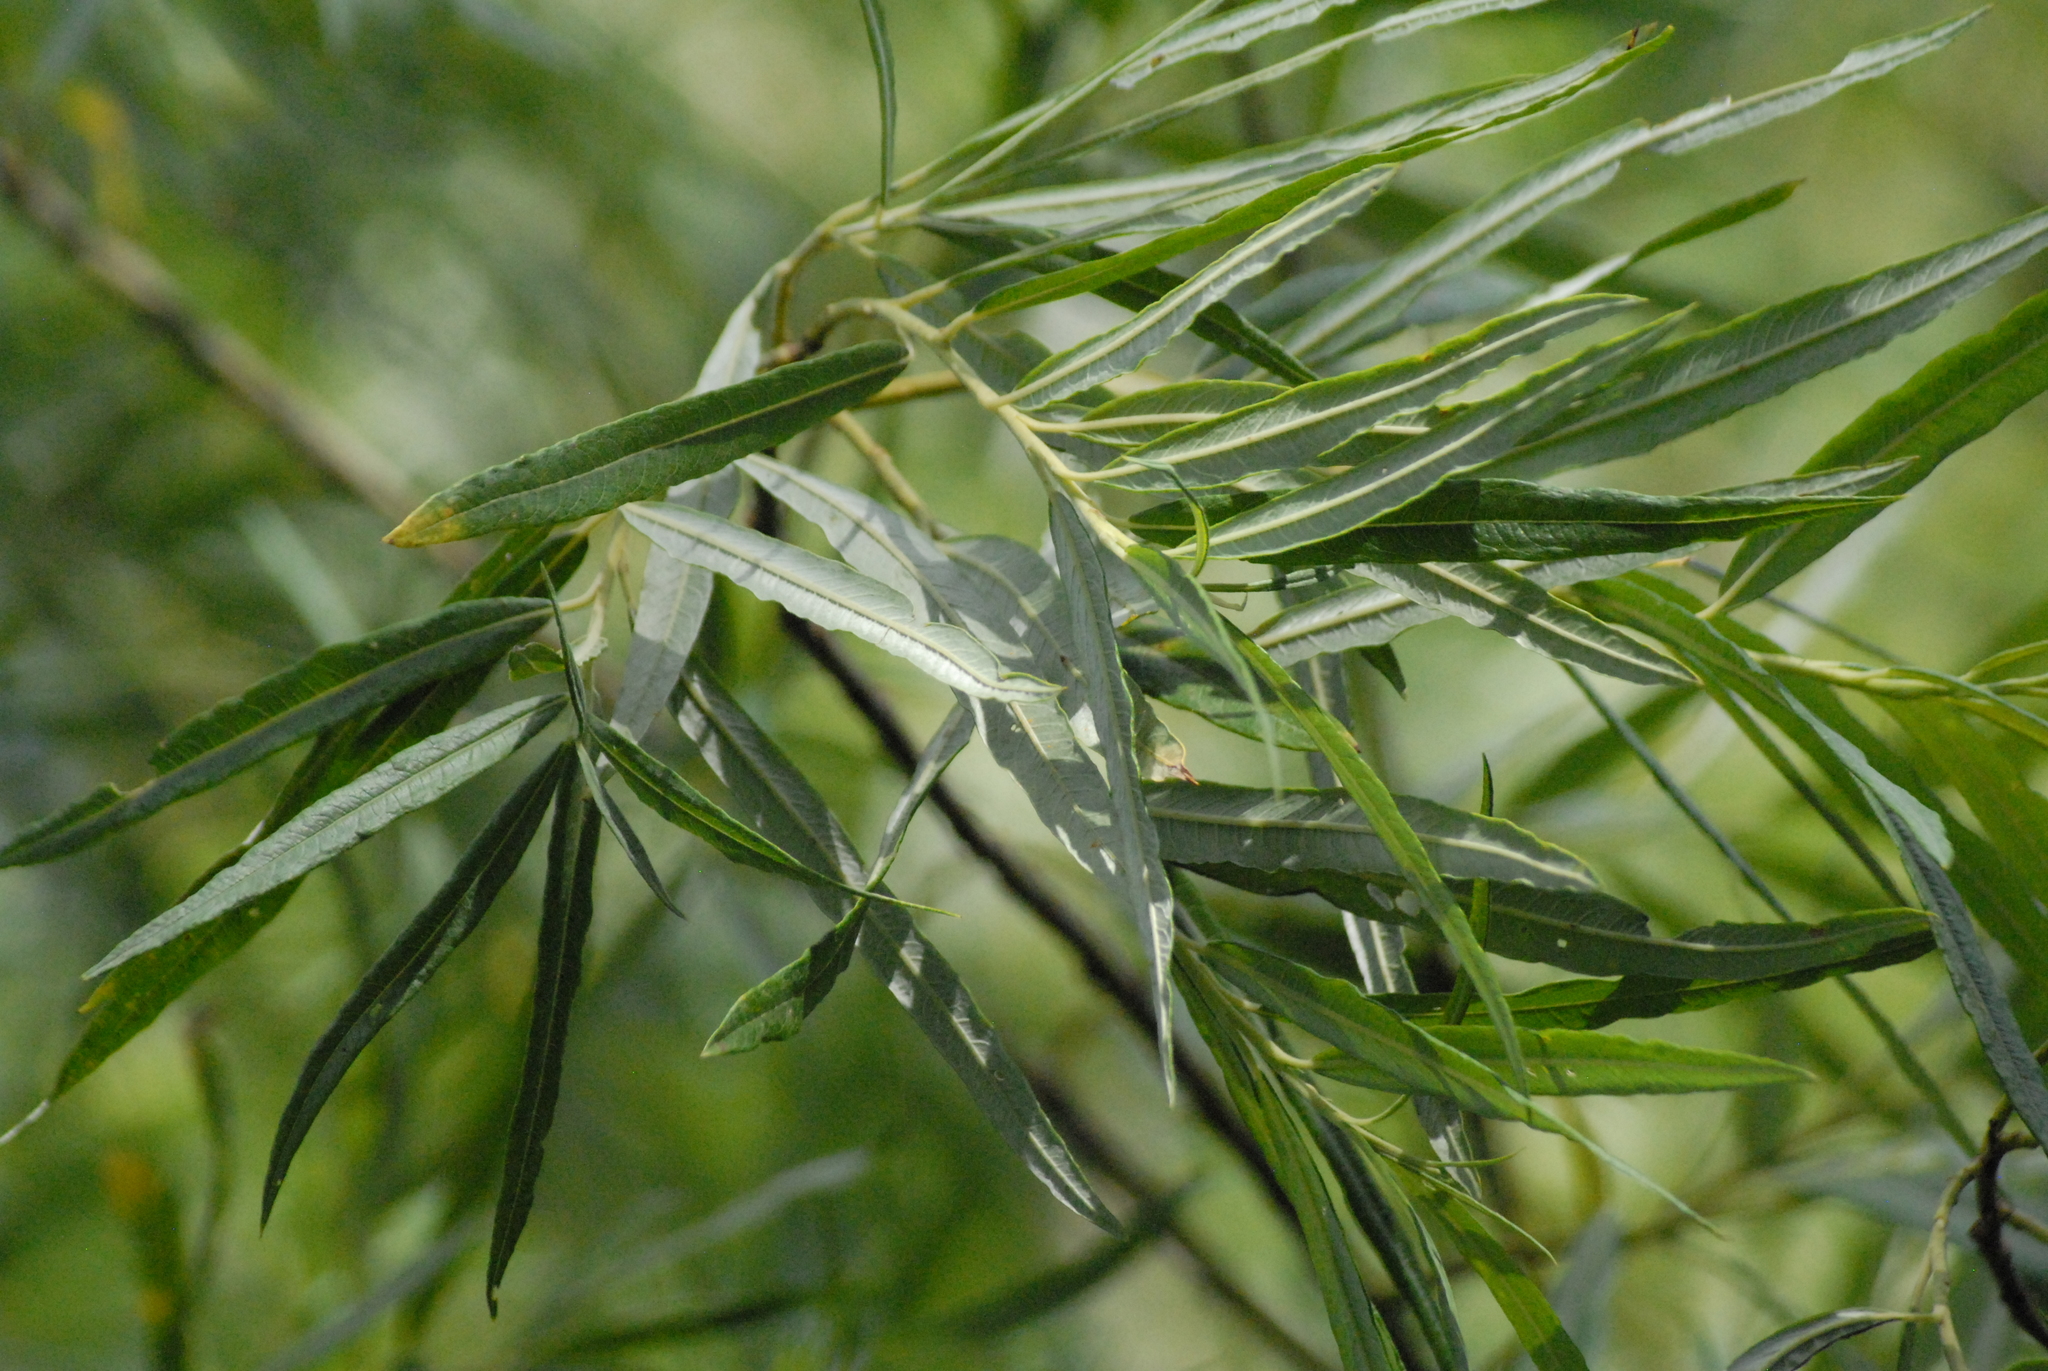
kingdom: Plantae
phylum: Tracheophyta
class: Magnoliopsida
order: Malpighiales
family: Salicaceae
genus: Salix
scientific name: Salix viminalis
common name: Osier
